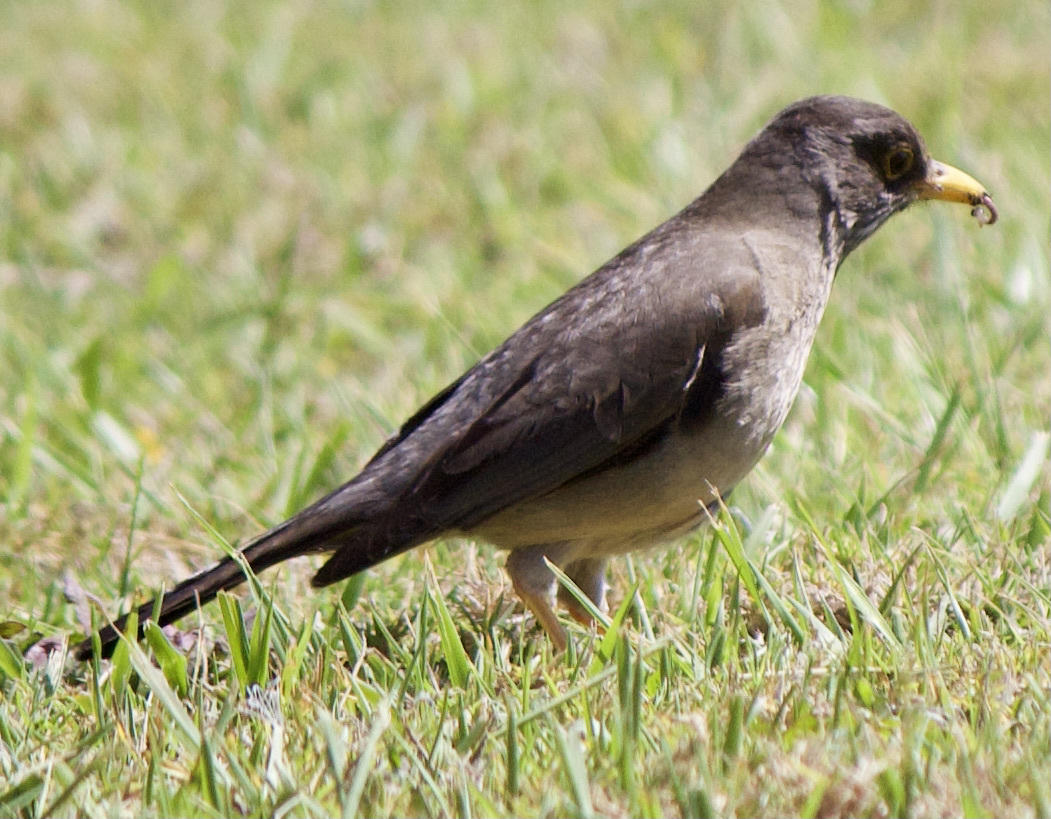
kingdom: Animalia
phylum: Chordata
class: Aves
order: Passeriformes
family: Turdidae
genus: Turdus
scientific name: Turdus falcklandii
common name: Austral thrush
